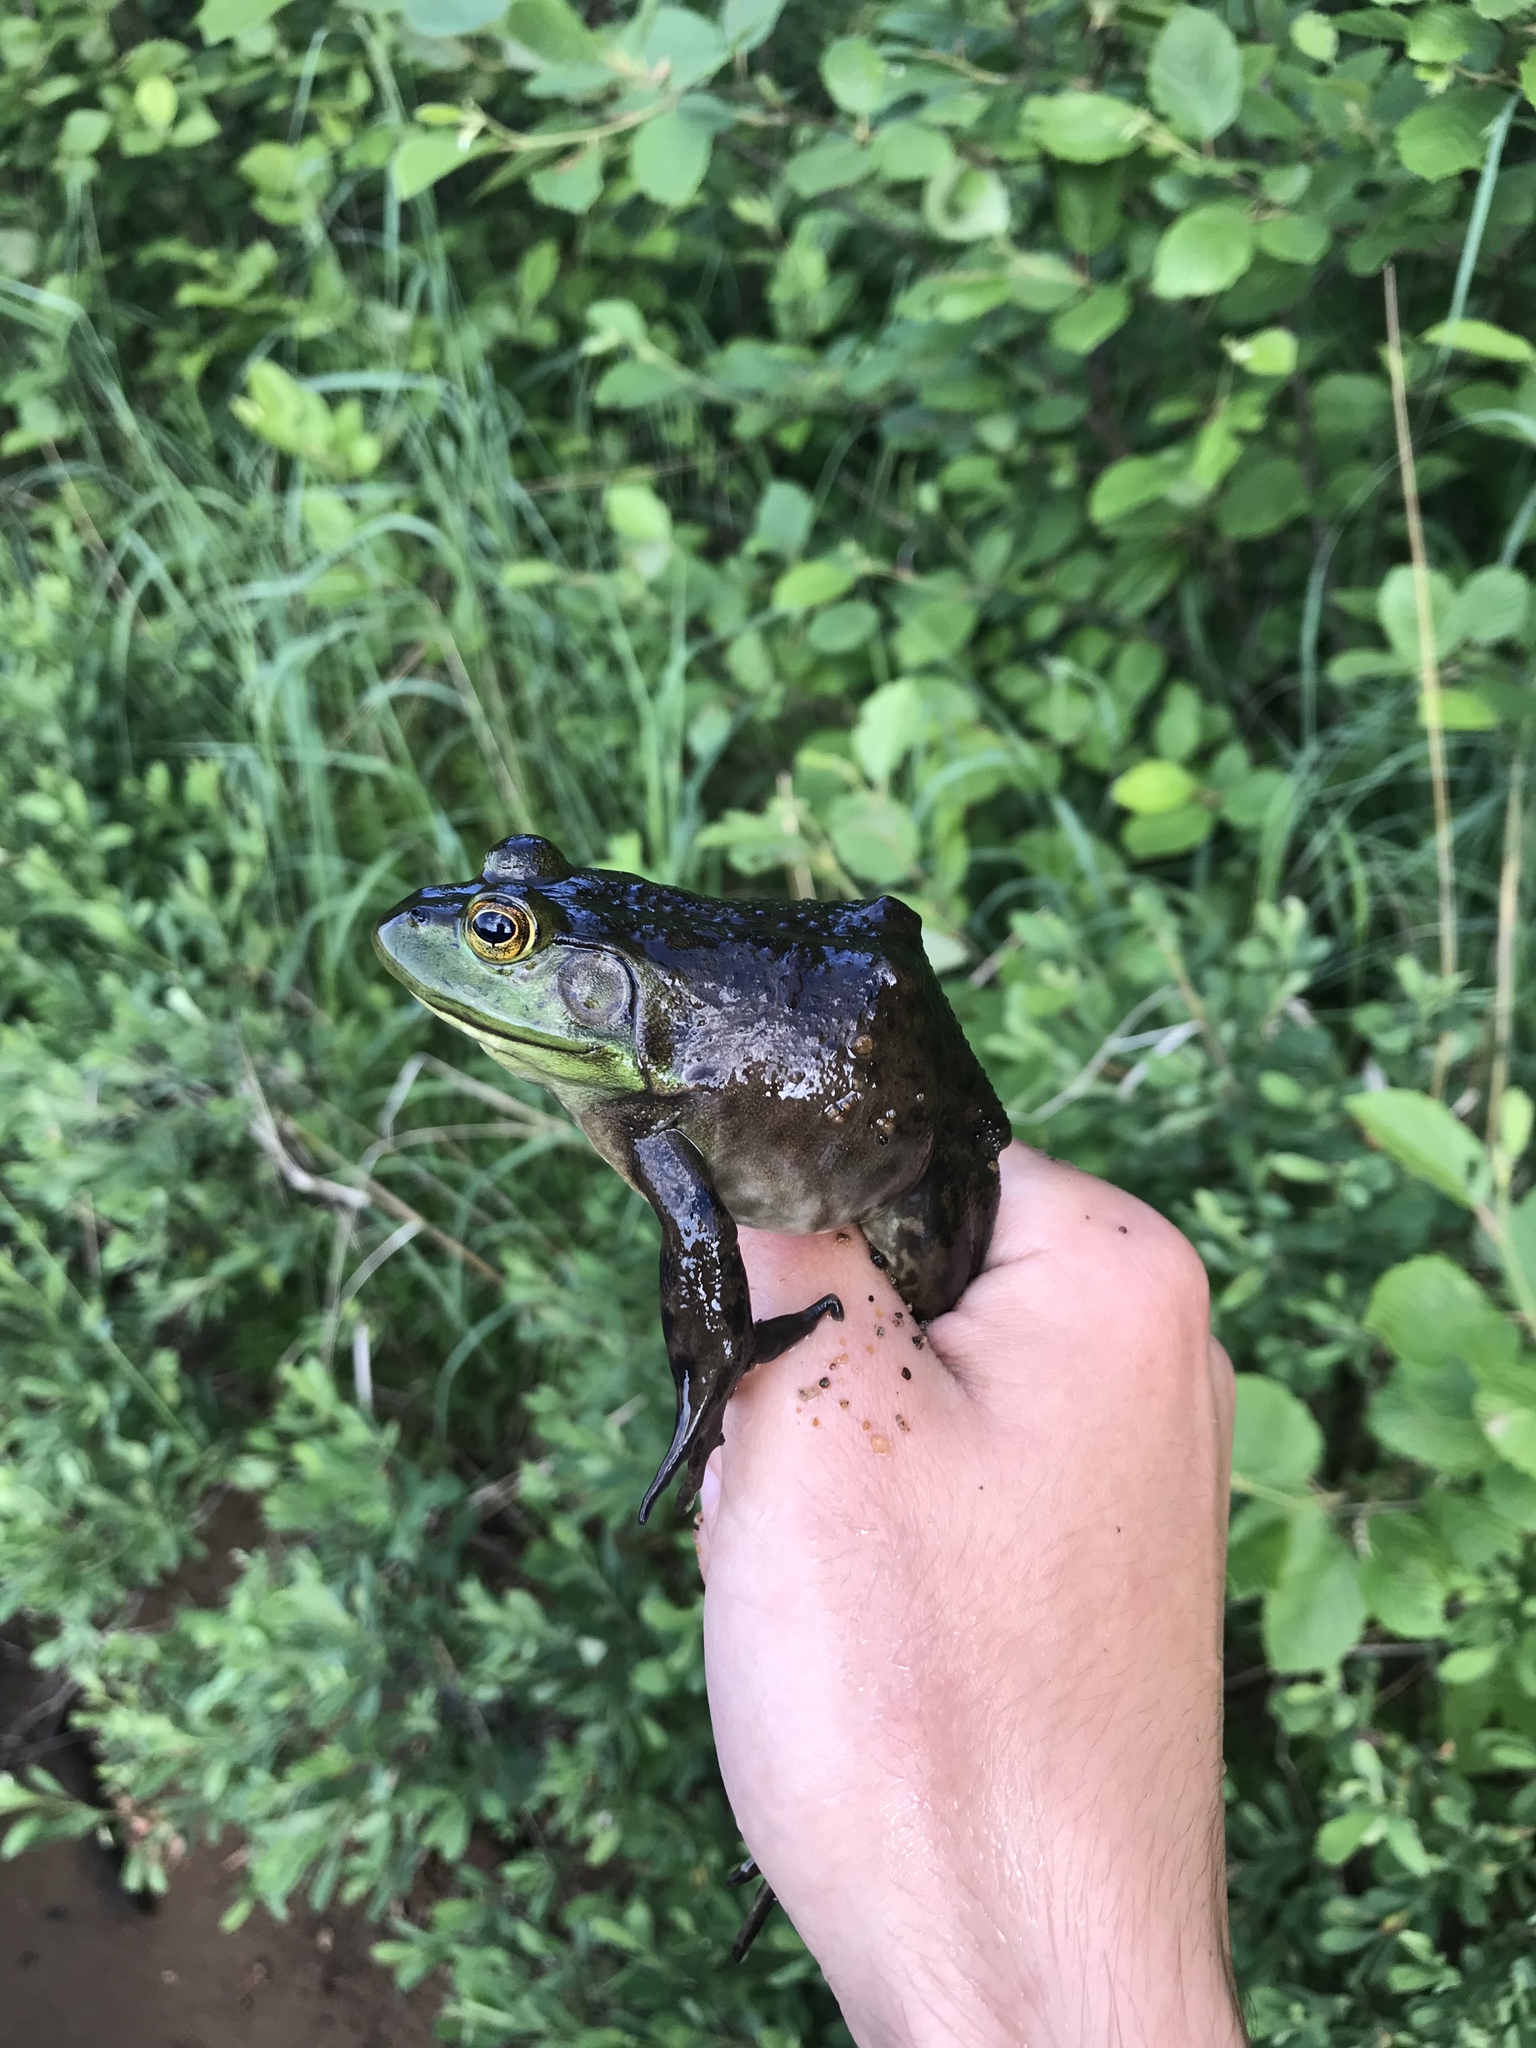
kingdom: Animalia
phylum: Chordata
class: Amphibia
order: Anura
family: Ranidae
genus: Lithobates
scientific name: Lithobates catesbeianus
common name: American bullfrog
